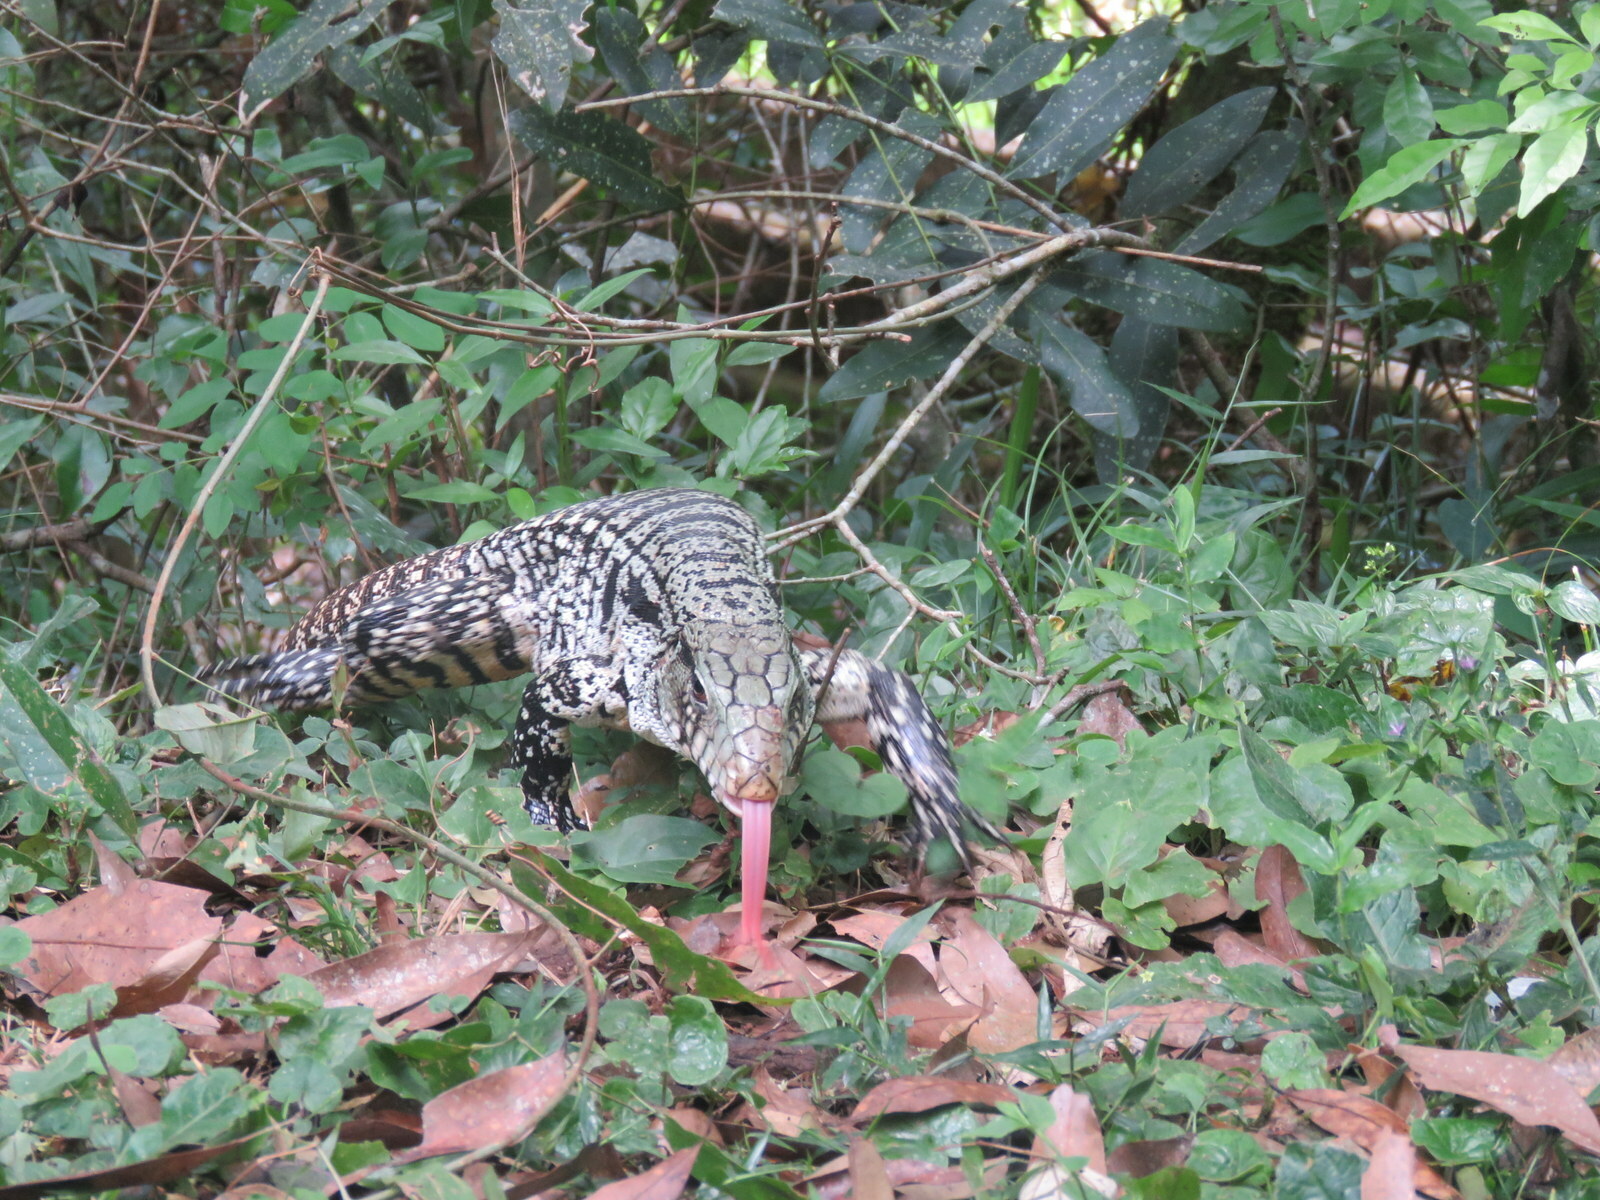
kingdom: Animalia
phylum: Chordata
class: Squamata
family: Teiidae
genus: Salvator
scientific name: Salvator merianae
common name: Argentine black and white tegu
